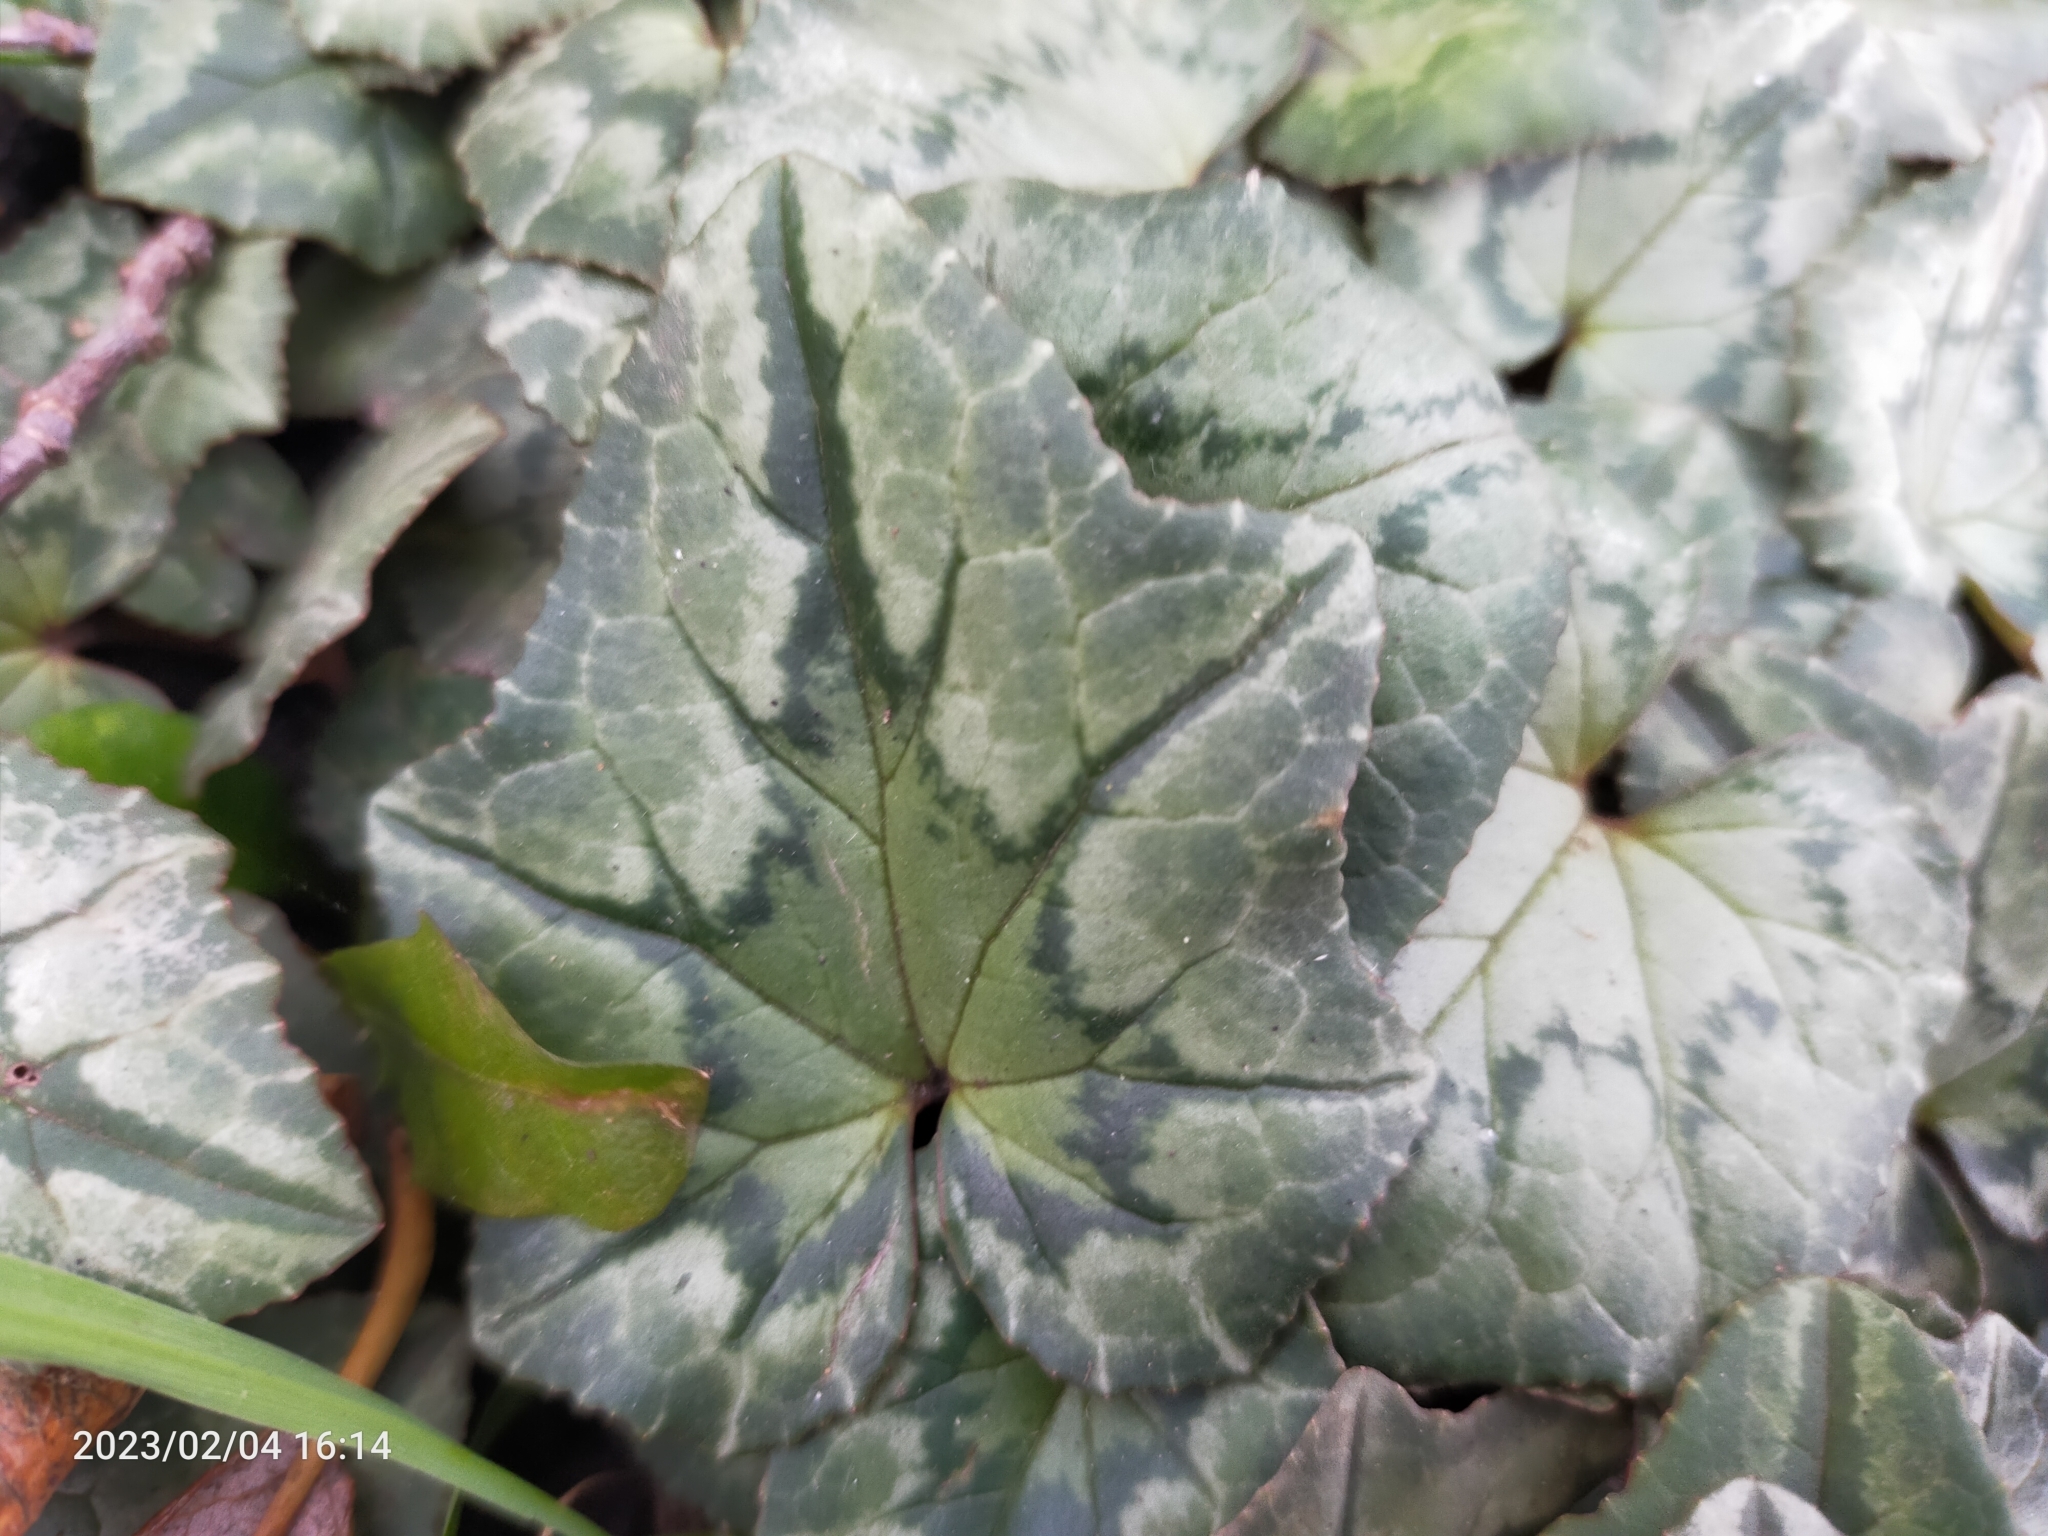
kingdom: Plantae
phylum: Tracheophyta
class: Magnoliopsida
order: Ericales
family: Primulaceae
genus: Cyclamen
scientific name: Cyclamen hederifolium
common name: Sowbread
